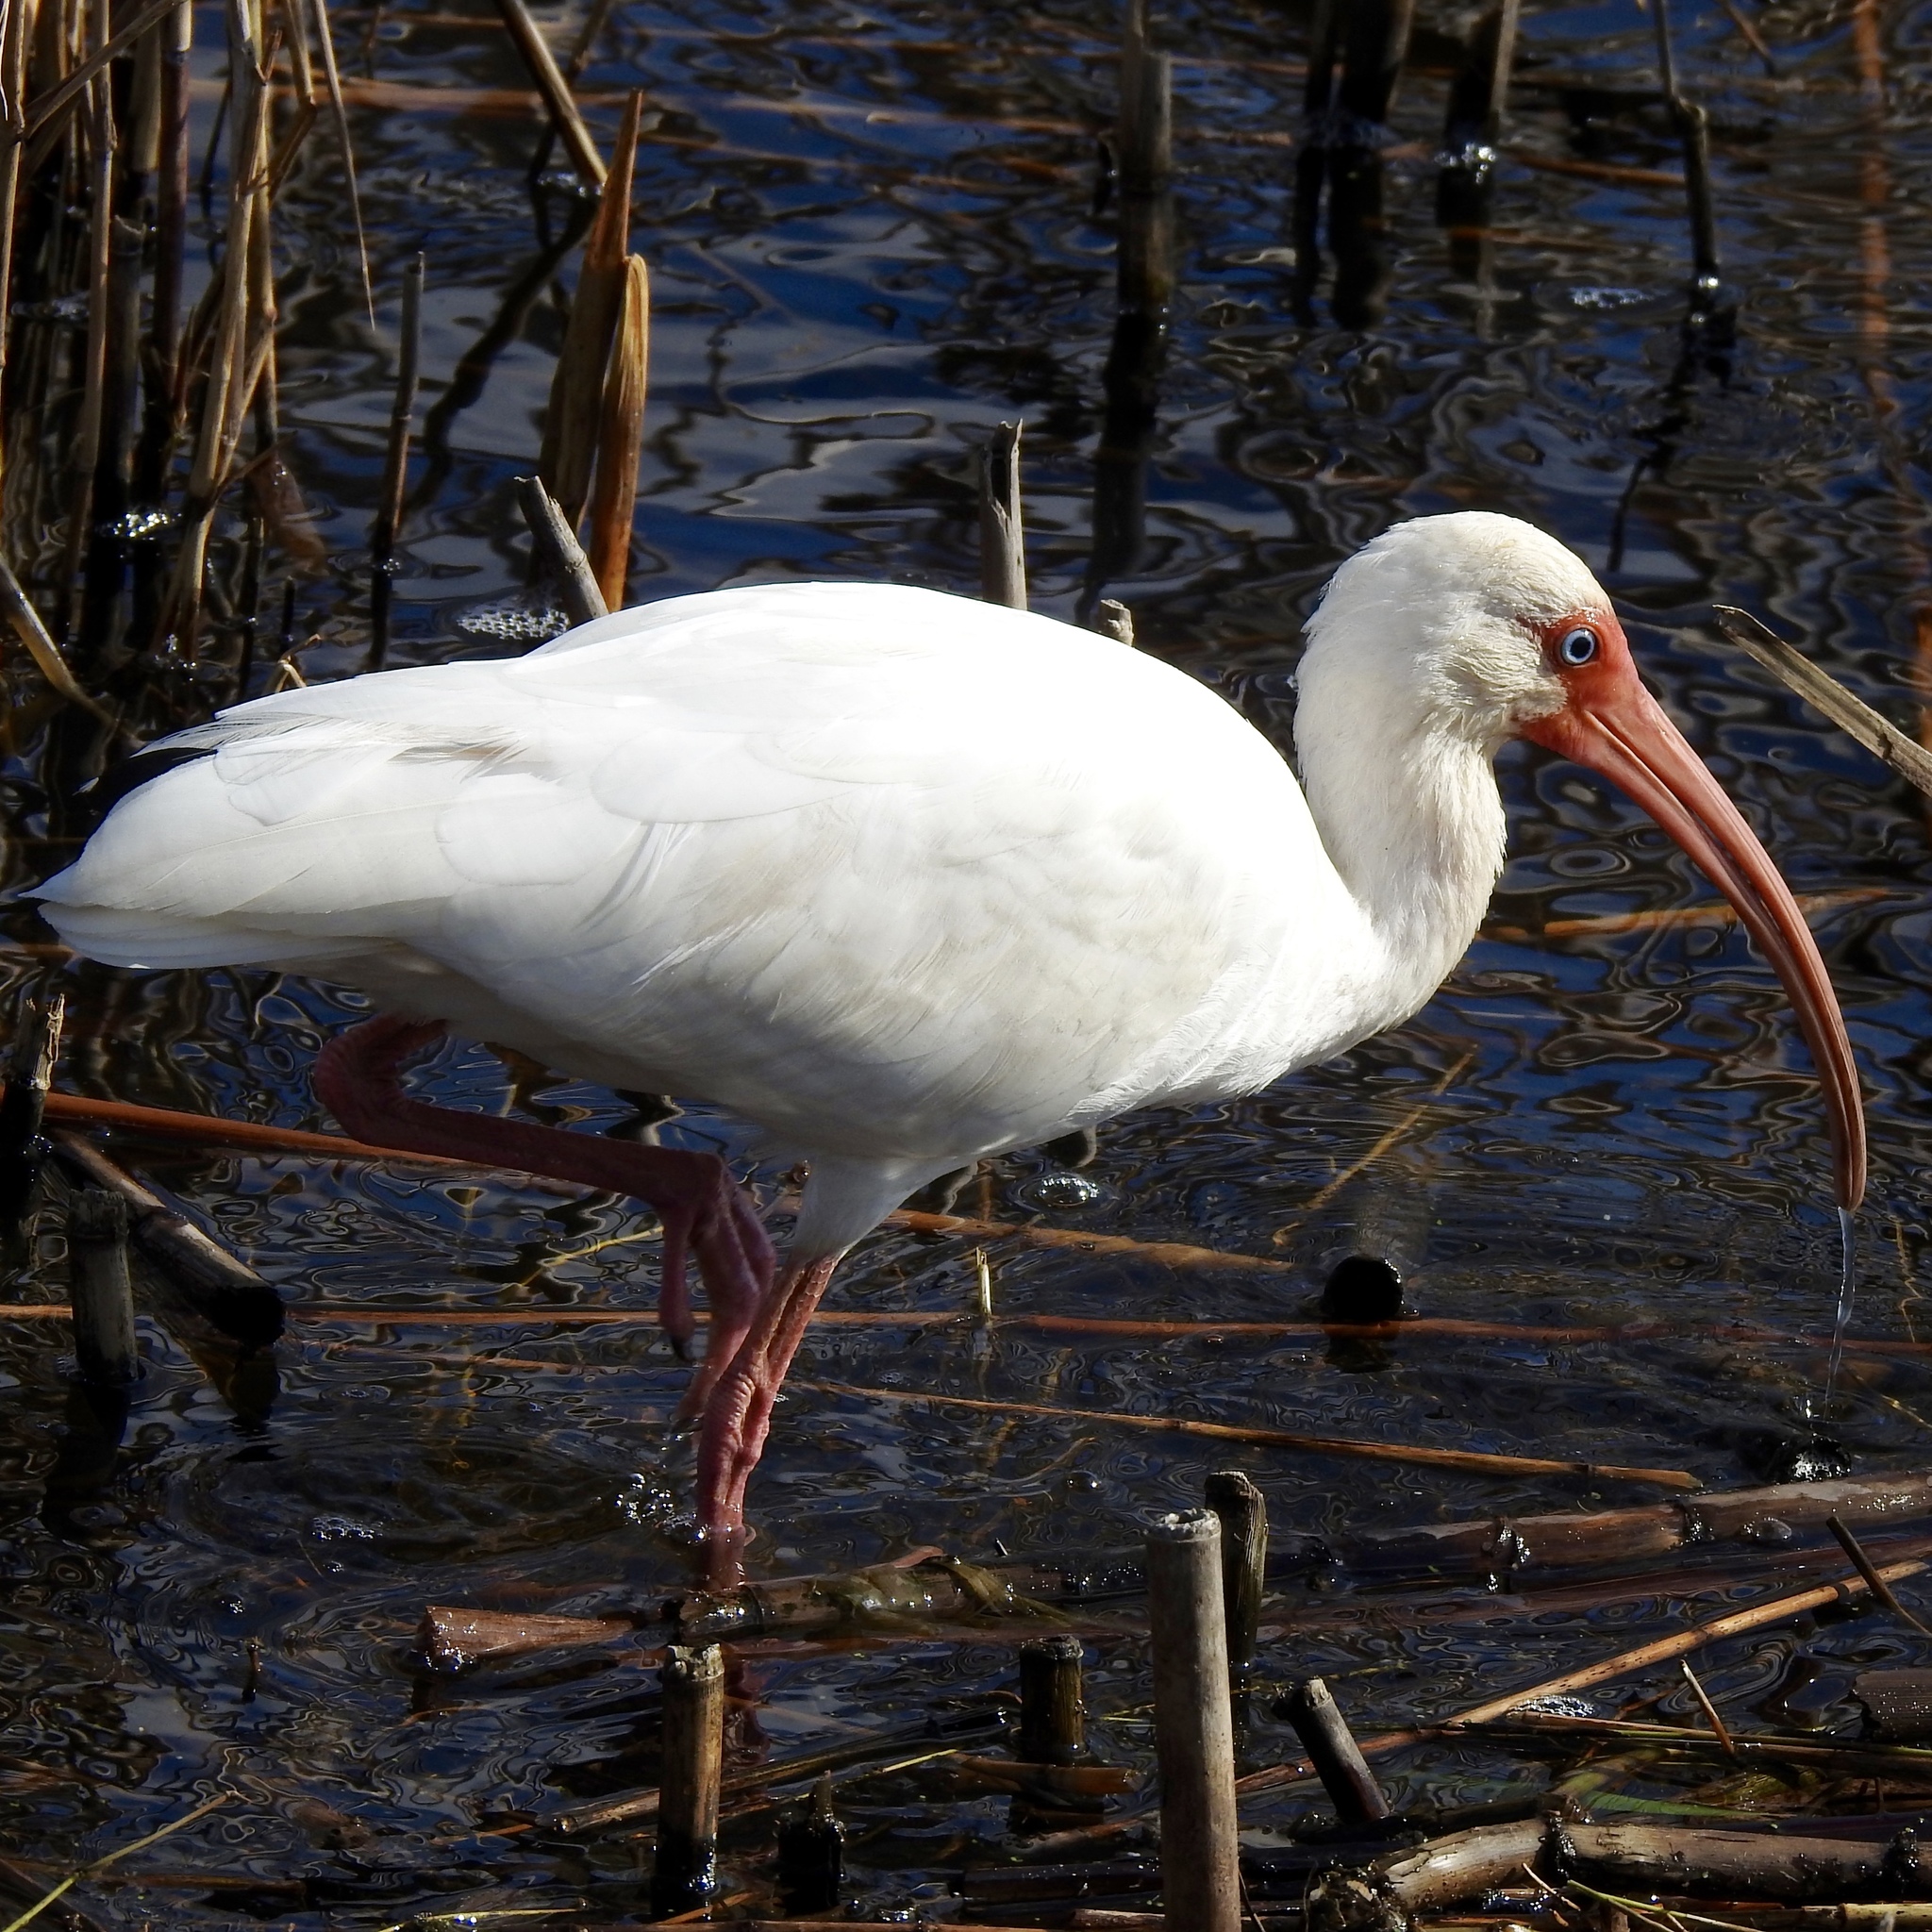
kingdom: Animalia
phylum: Chordata
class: Aves
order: Pelecaniformes
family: Threskiornithidae
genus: Eudocimus
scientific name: Eudocimus albus
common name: White ibis
